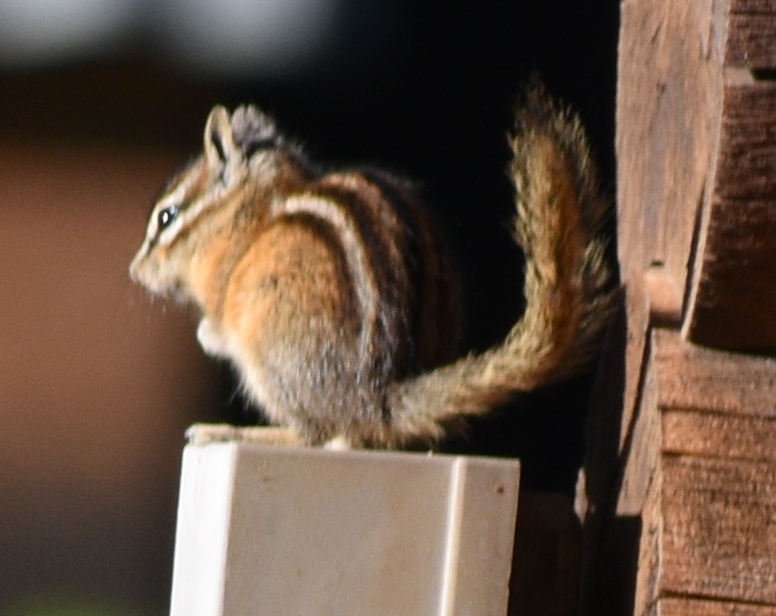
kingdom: Animalia
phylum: Chordata
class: Mammalia
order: Rodentia
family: Sciuridae
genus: Tamias
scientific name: Tamias minimus
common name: Least chipmunk
